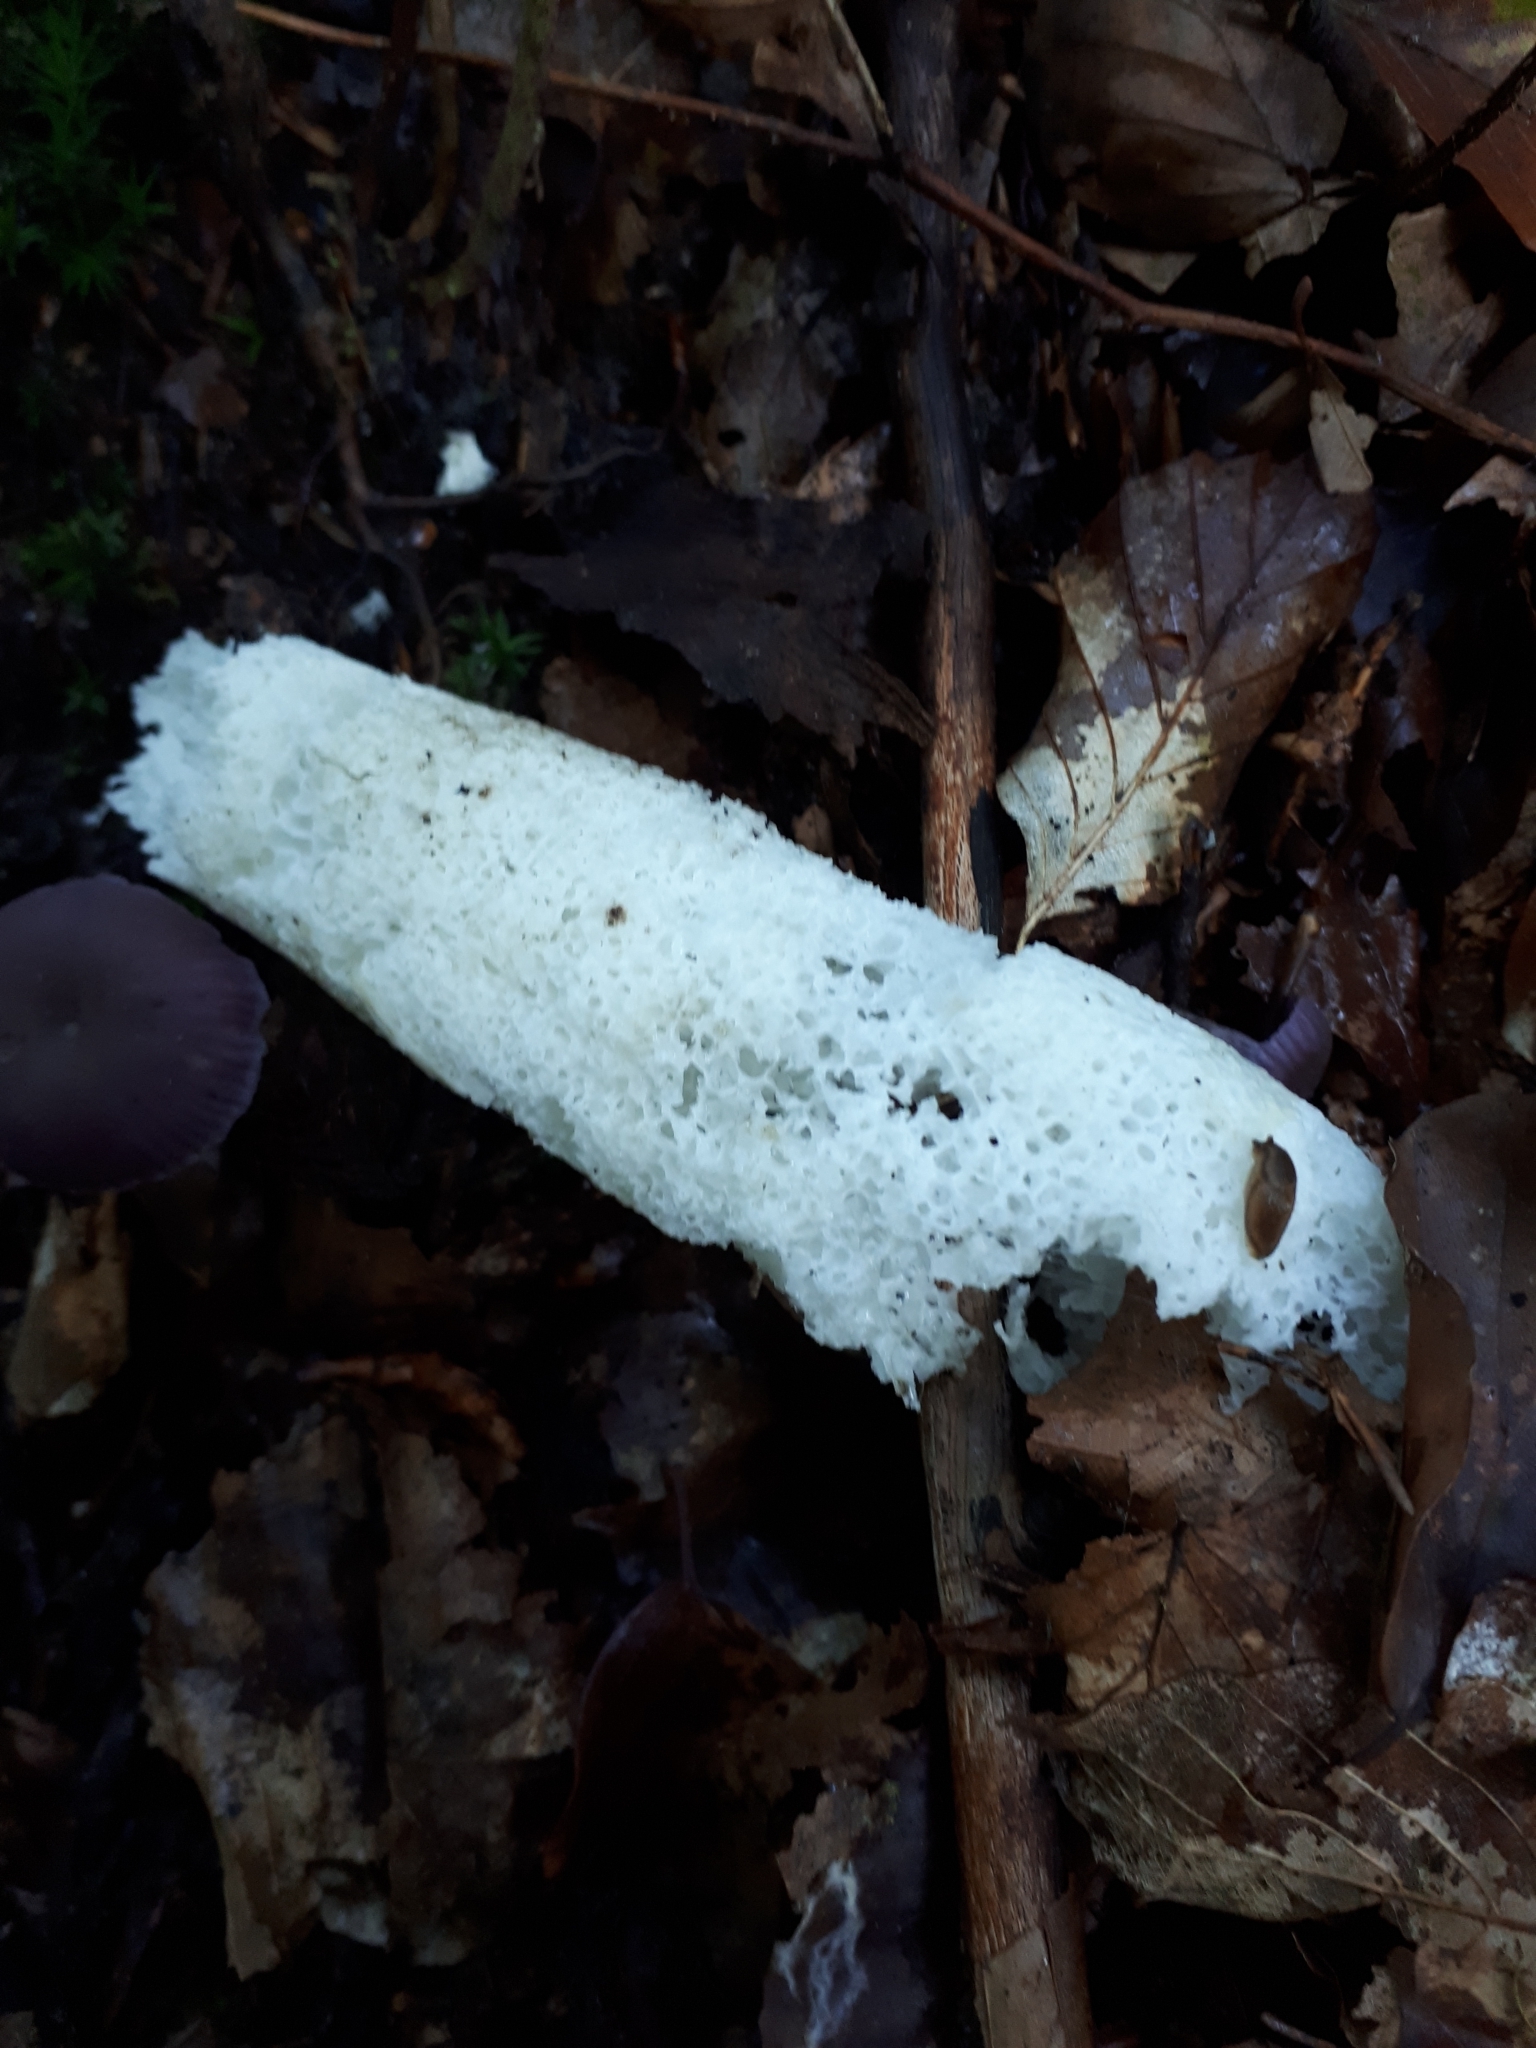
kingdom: Fungi
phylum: Basidiomycota
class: Agaricomycetes
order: Phallales
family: Phallaceae
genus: Phallus
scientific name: Phallus impudicus
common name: Common stinkhorn
